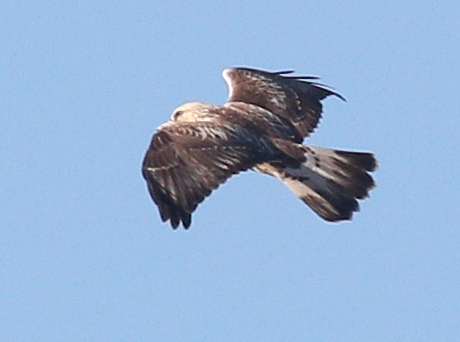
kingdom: Animalia
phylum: Chordata
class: Aves
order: Accipitriformes
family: Accipitridae
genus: Buteo
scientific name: Buteo lagopus
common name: Rough-legged buzzard
